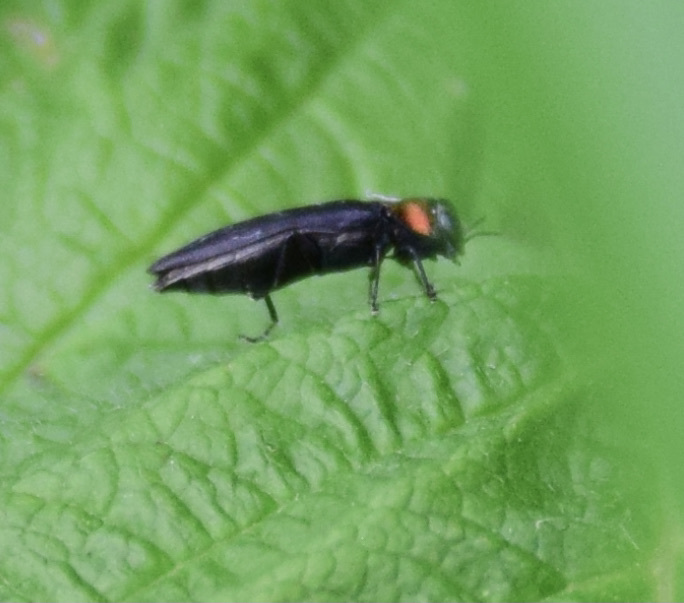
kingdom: Animalia
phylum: Arthropoda
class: Insecta
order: Coleoptera
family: Buprestidae
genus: Agrilus
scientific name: Agrilus ruficollis
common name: Red-necked cane borer beetle
